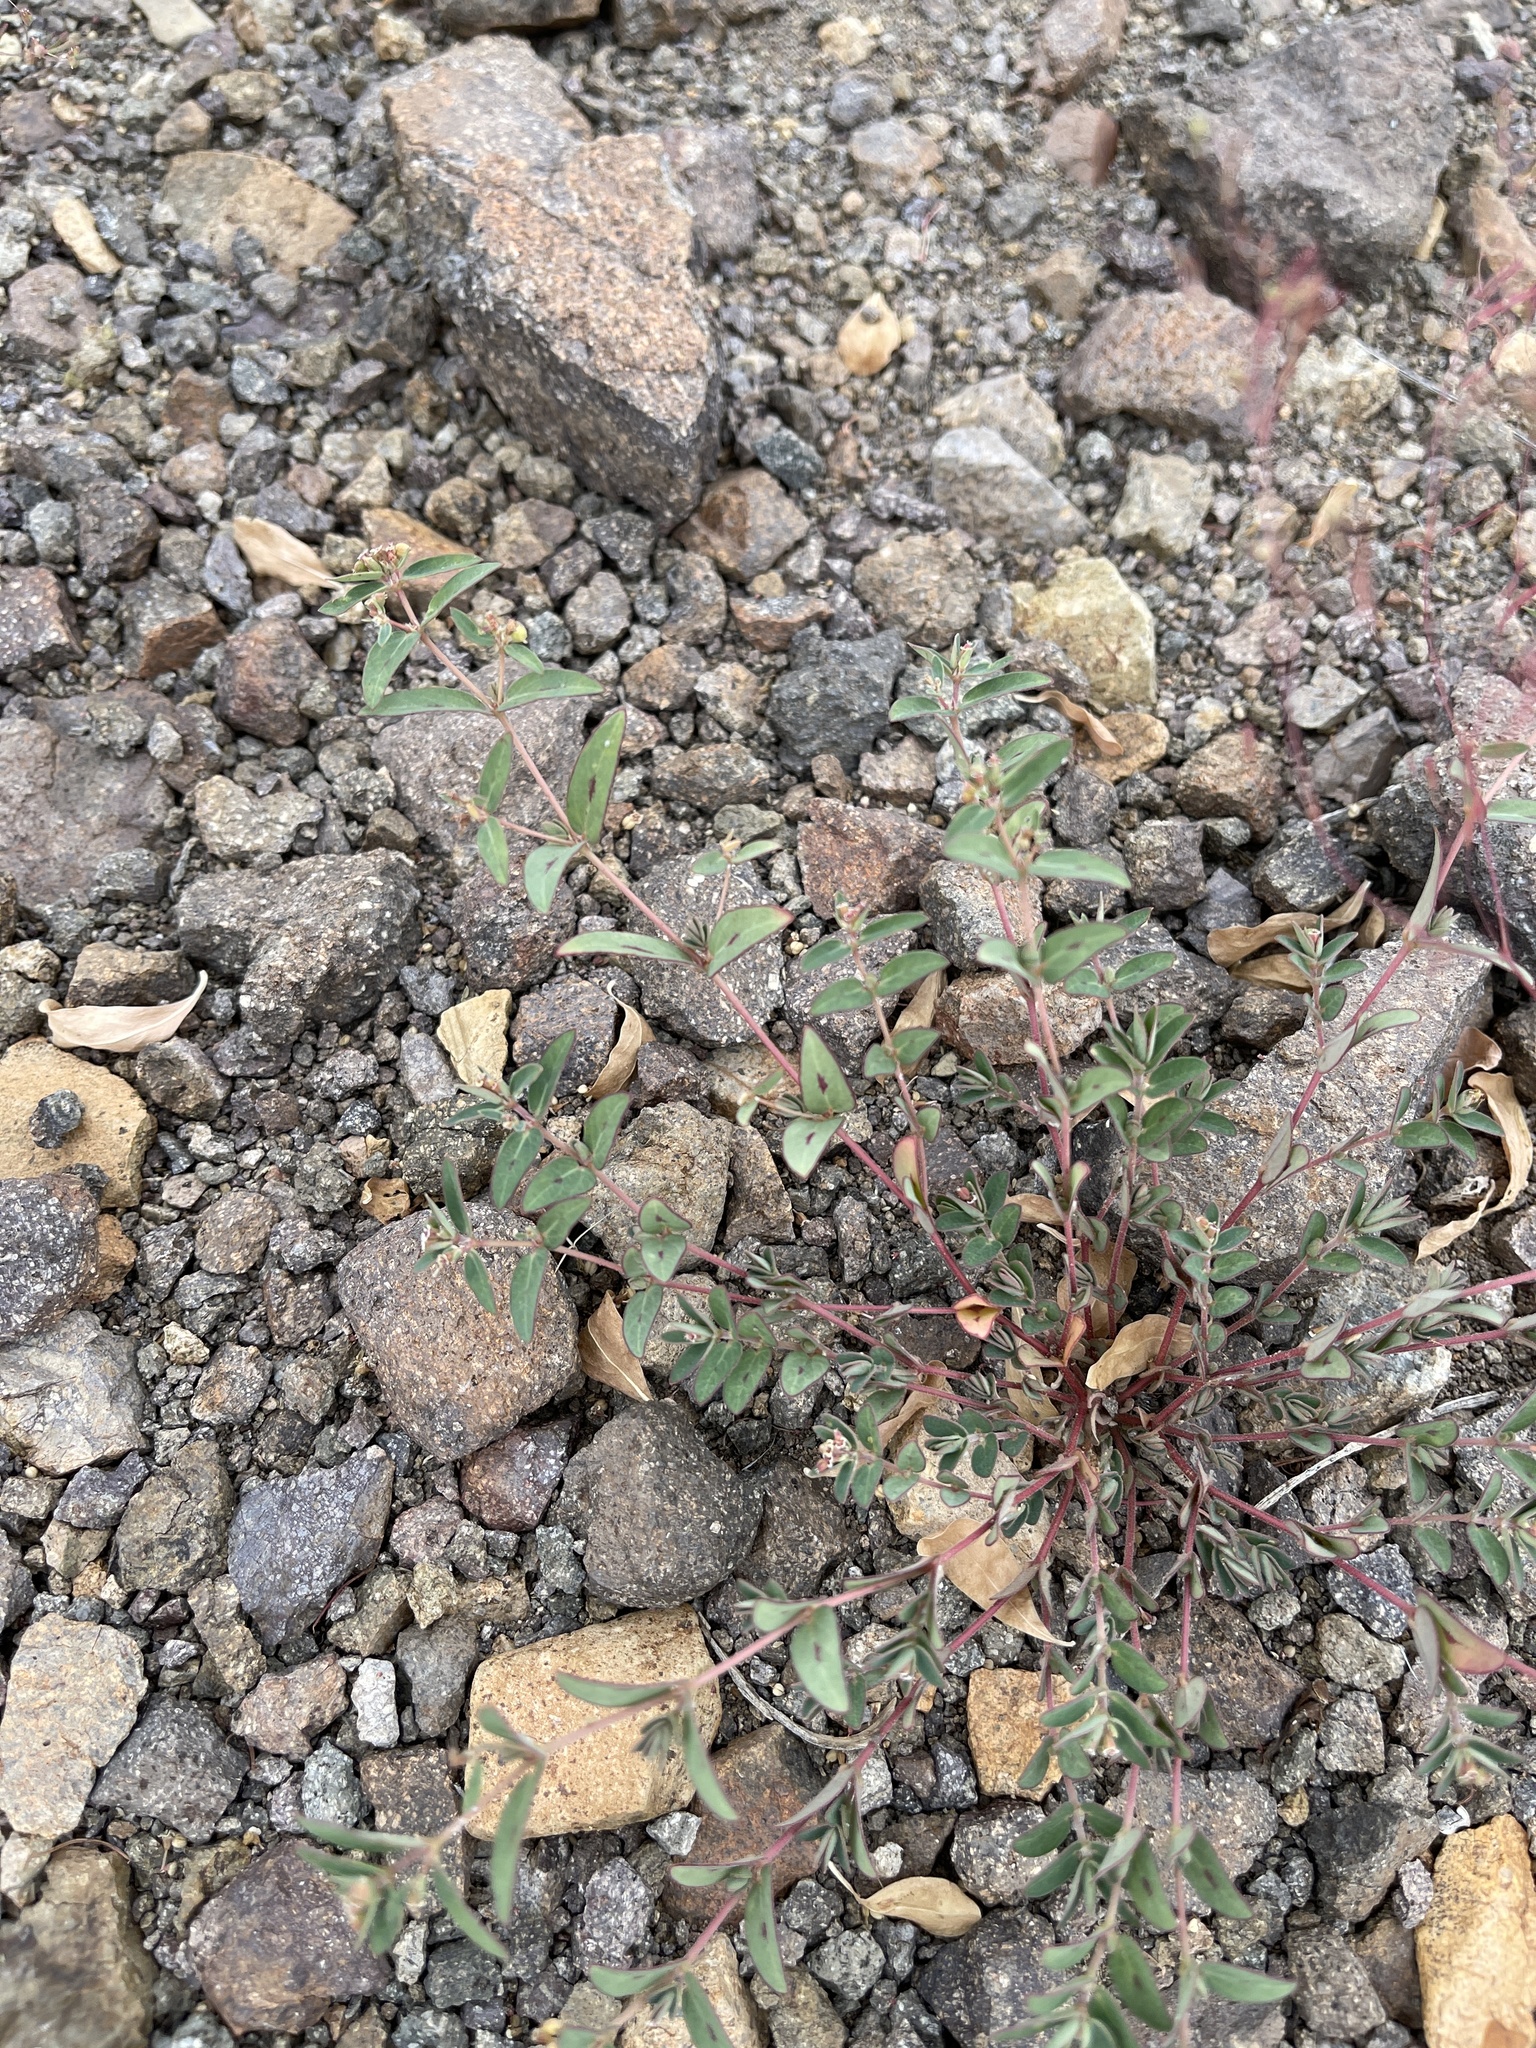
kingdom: Plantae
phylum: Tracheophyta
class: Magnoliopsida
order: Malpighiales
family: Euphorbiaceae
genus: Euphorbia
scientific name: Euphorbia capitellata
